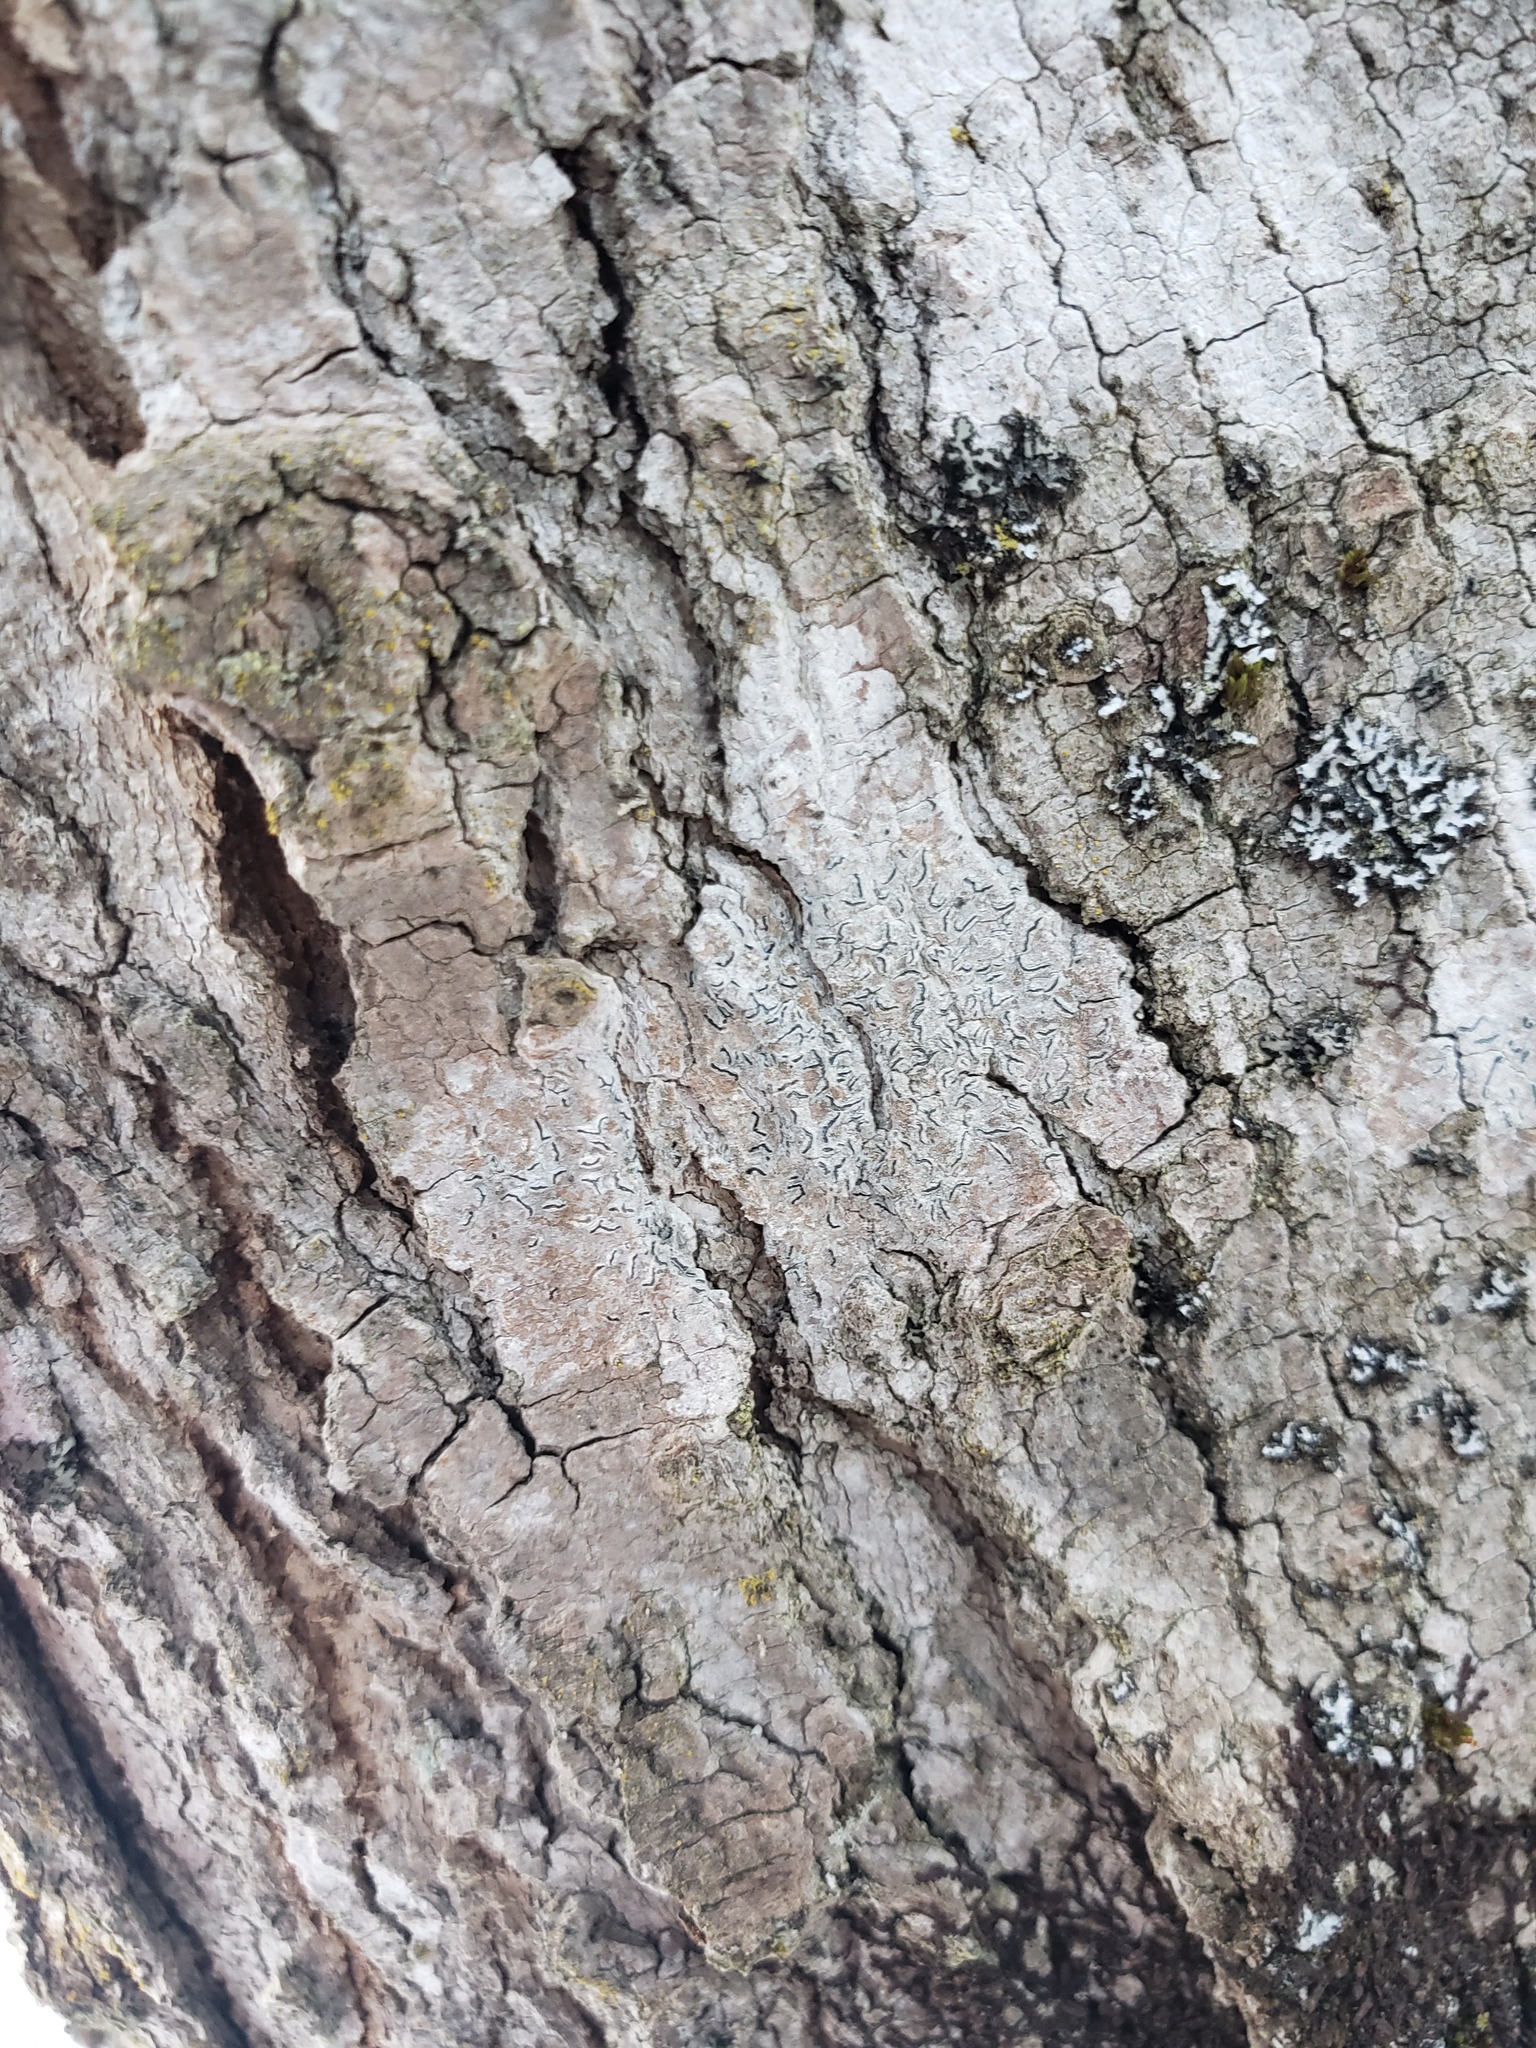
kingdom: Fungi
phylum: Ascomycota
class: Lecanoromycetes
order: Ostropales
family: Graphidaceae
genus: Graphis
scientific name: Graphis scripta
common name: Script lichen
